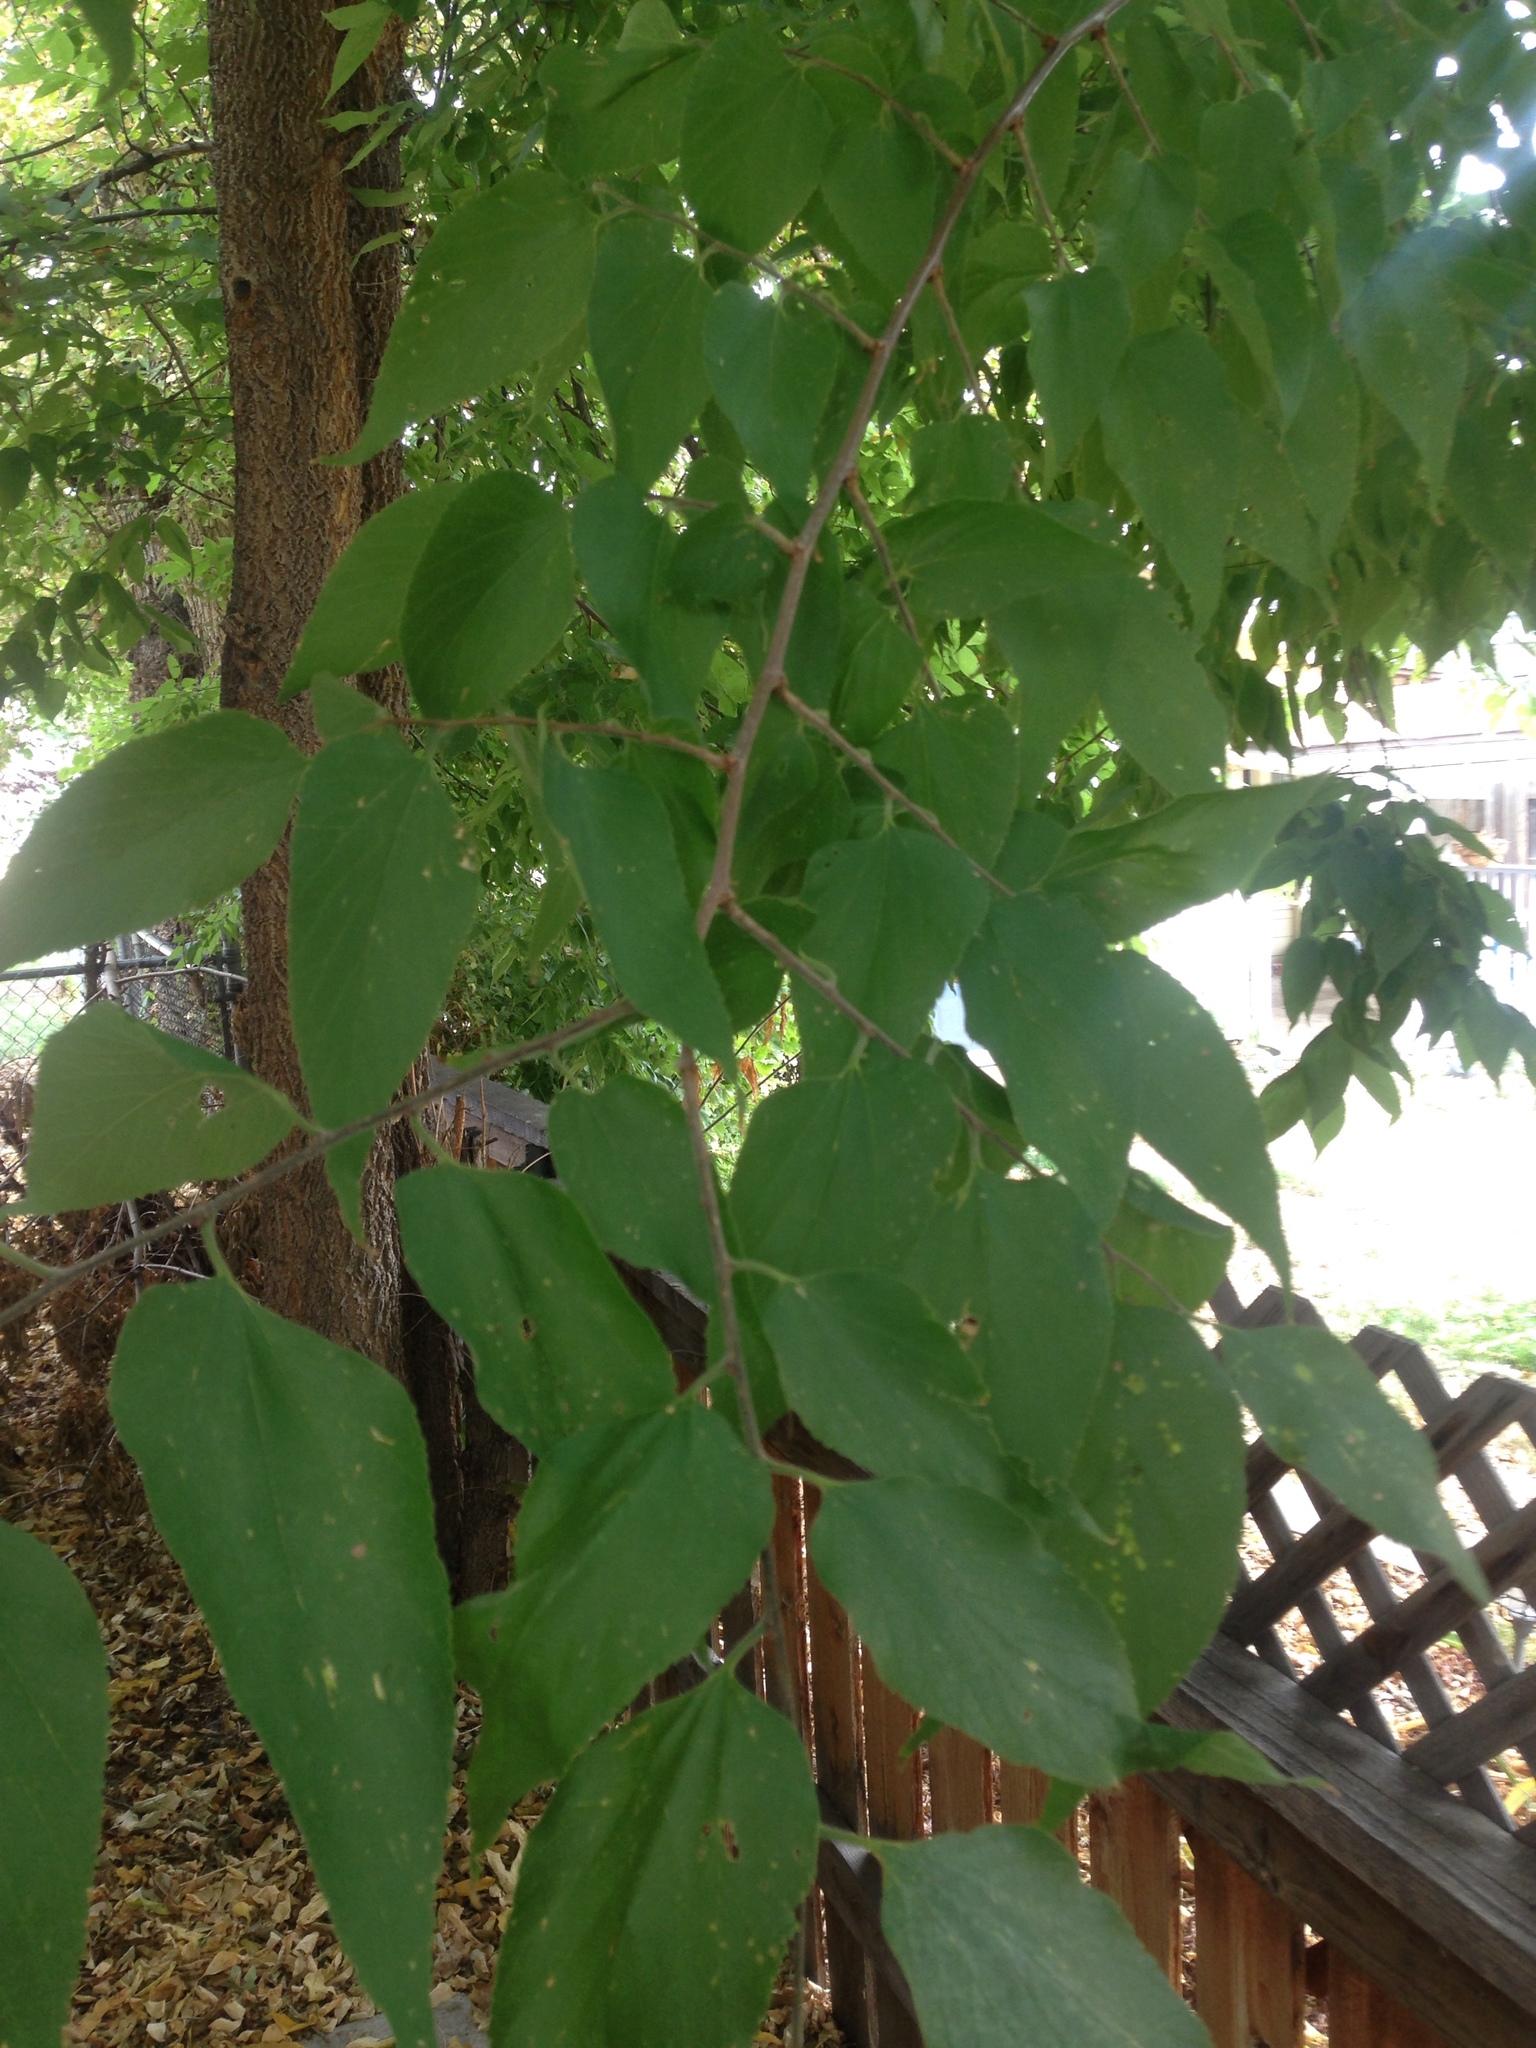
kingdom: Plantae
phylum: Tracheophyta
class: Magnoliopsida
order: Rosales
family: Cannabaceae
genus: Celtis
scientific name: Celtis occidentalis
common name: Common hackberry
